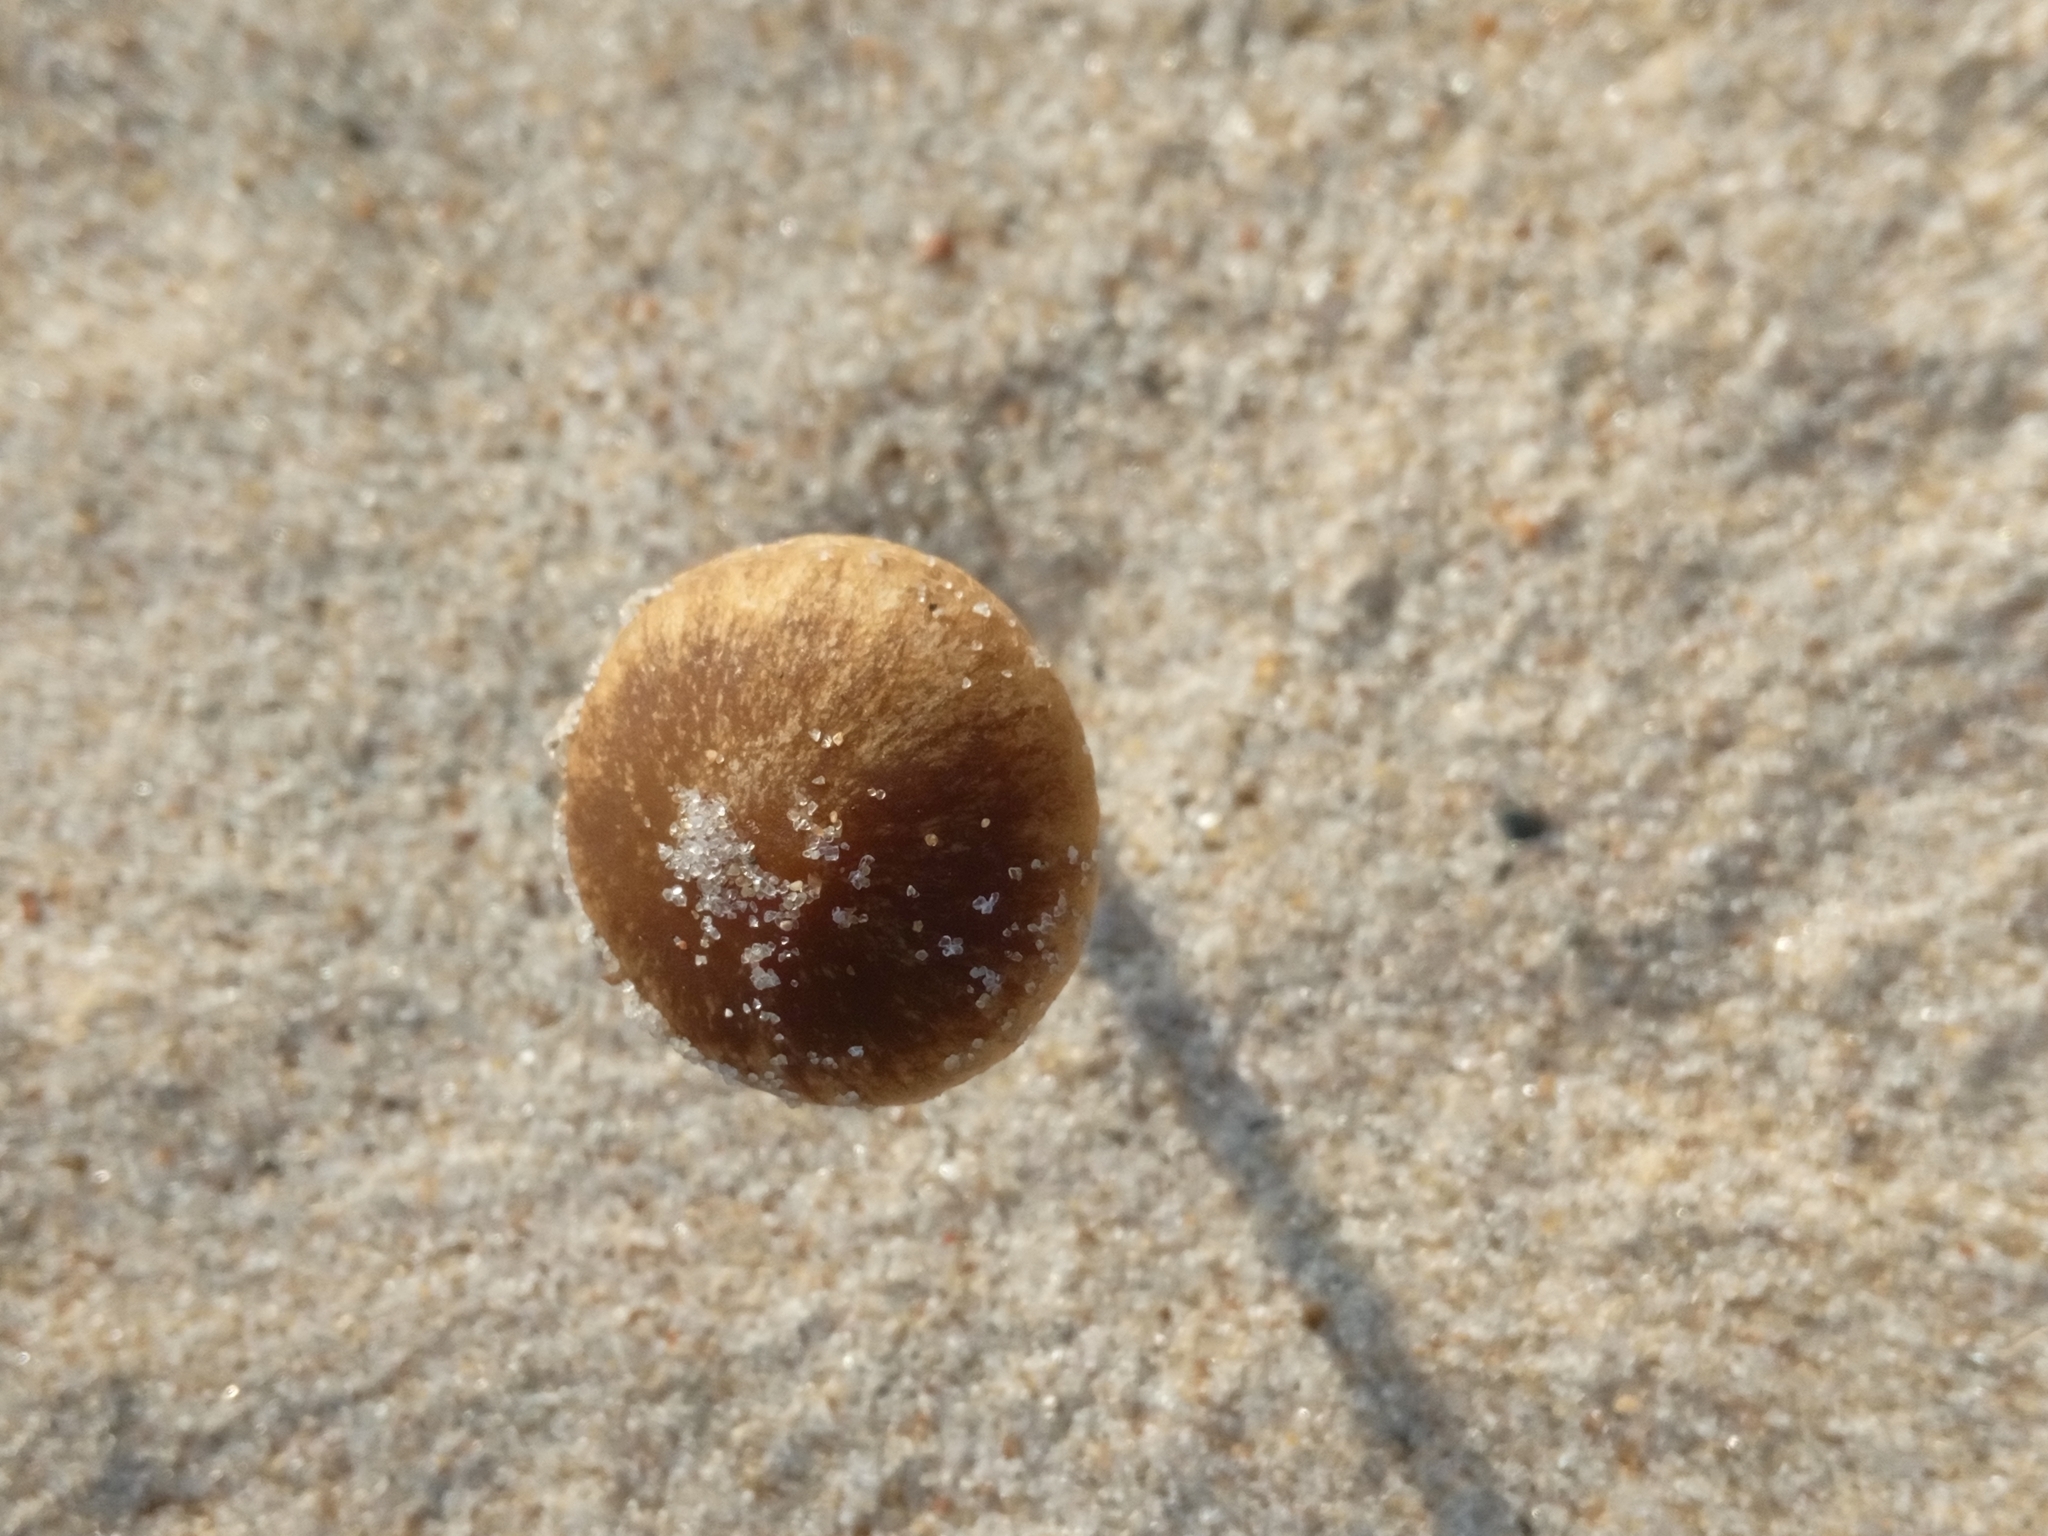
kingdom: Fungi
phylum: Basidiomycota
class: Agaricomycetes
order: Agaricales
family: Psathyrellaceae
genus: Psathyrella
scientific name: Psathyrella ammophila
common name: Dune brittlestem
